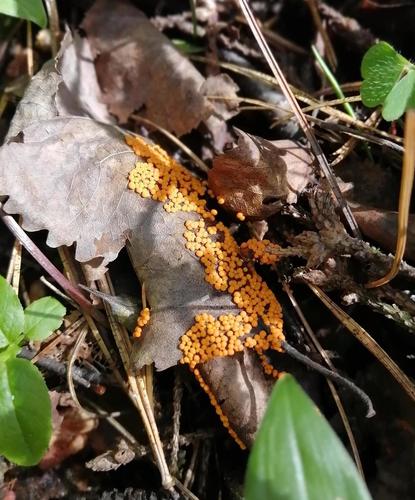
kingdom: Protozoa
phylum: Mycetozoa
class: Myxomycetes
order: Physarales
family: Physaraceae
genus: Physarum
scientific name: Physarum
